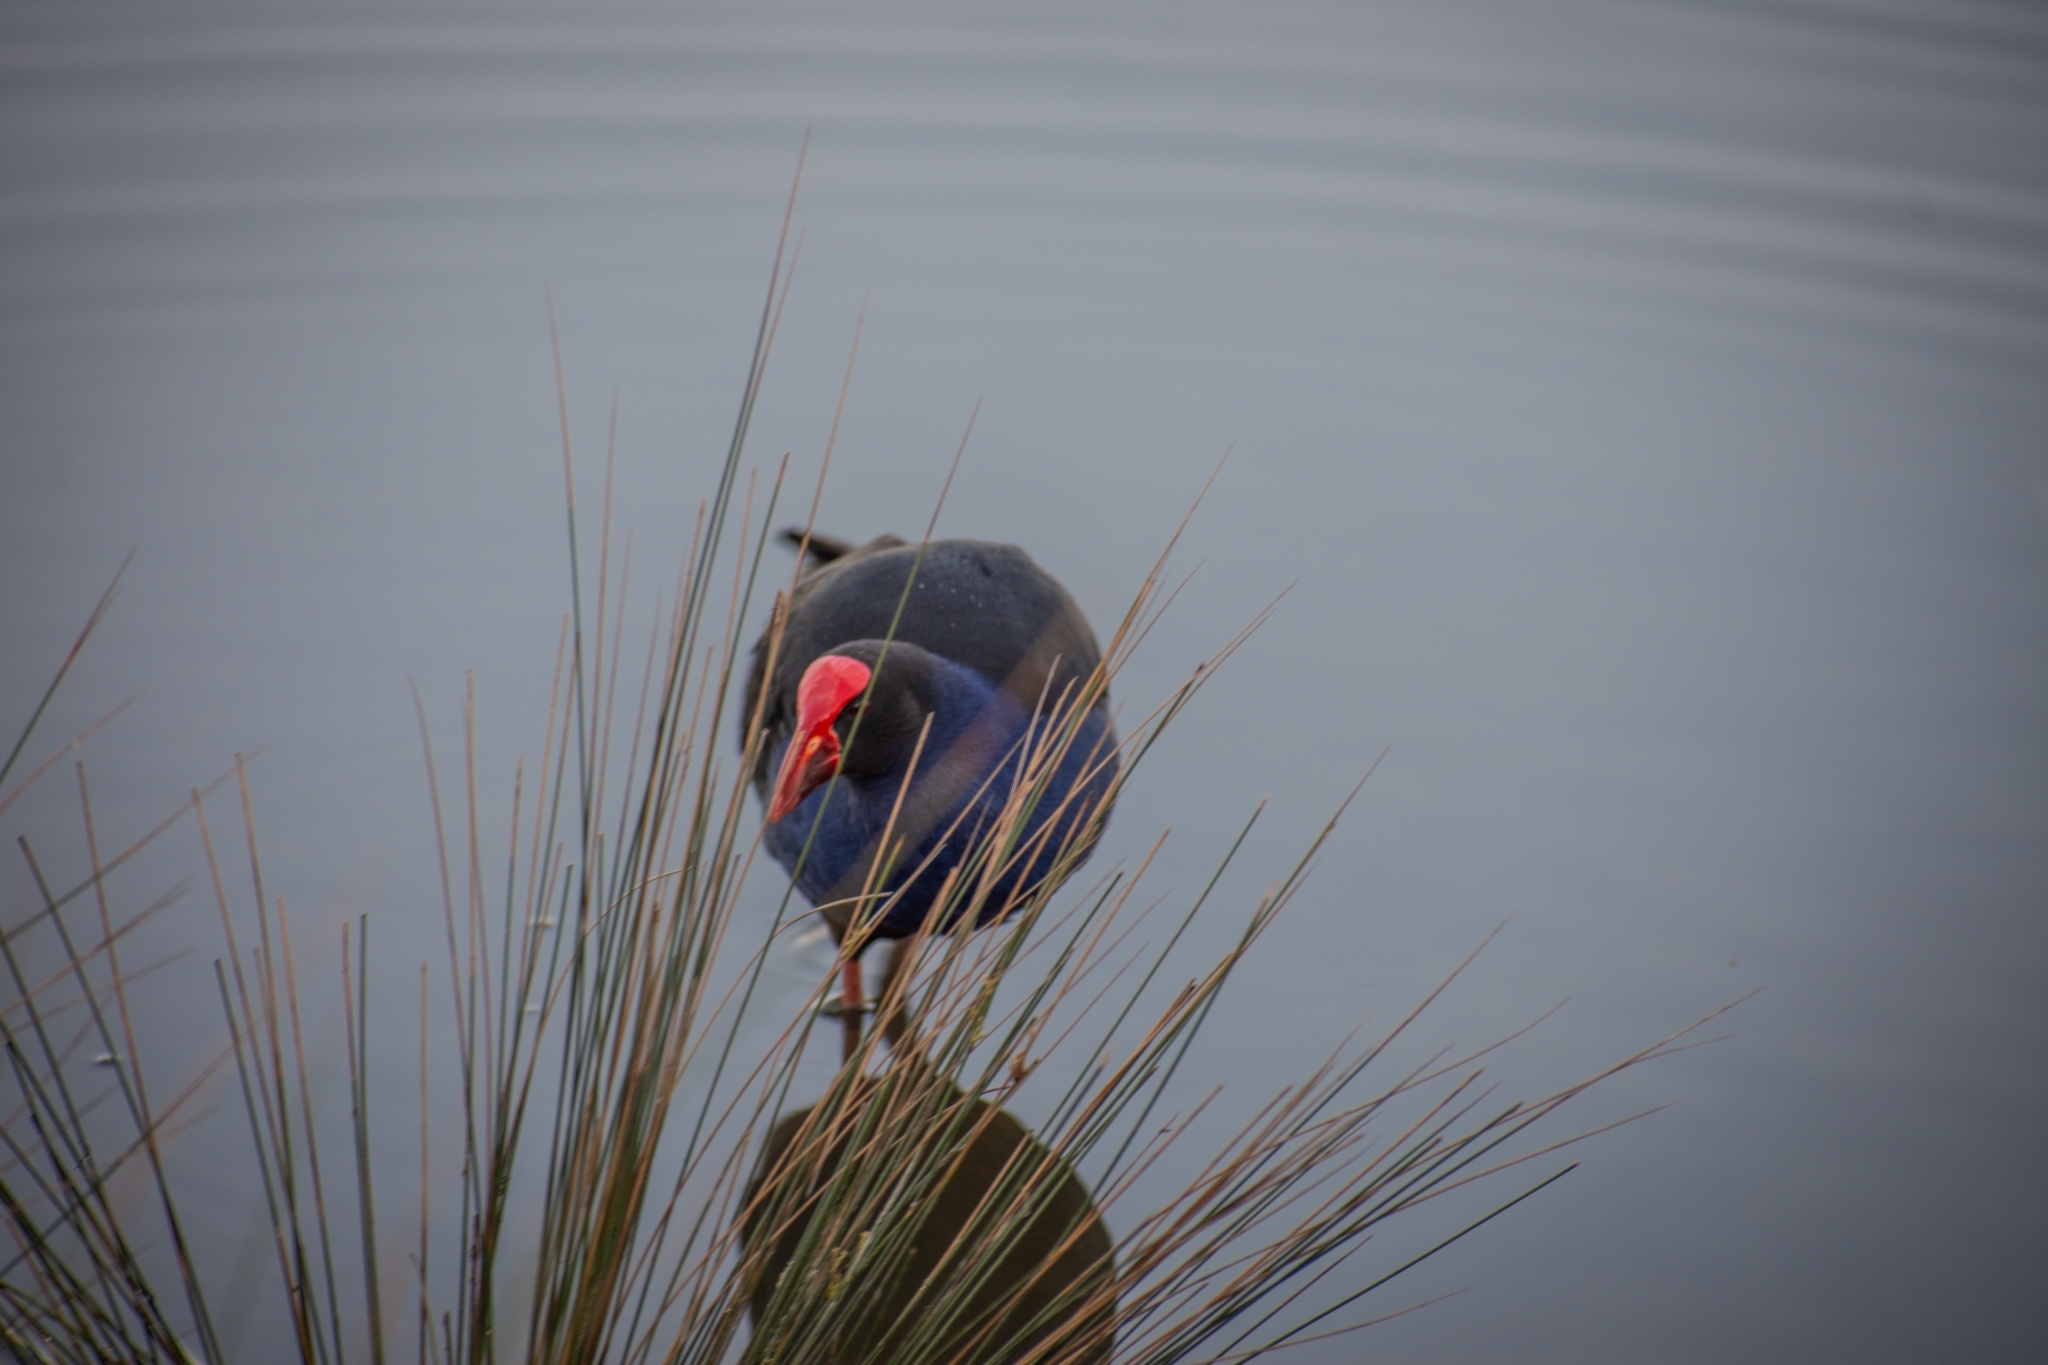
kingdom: Animalia
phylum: Chordata
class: Aves
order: Gruiformes
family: Rallidae
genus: Porphyrio
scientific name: Porphyrio melanotus
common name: Australasian swamphen
